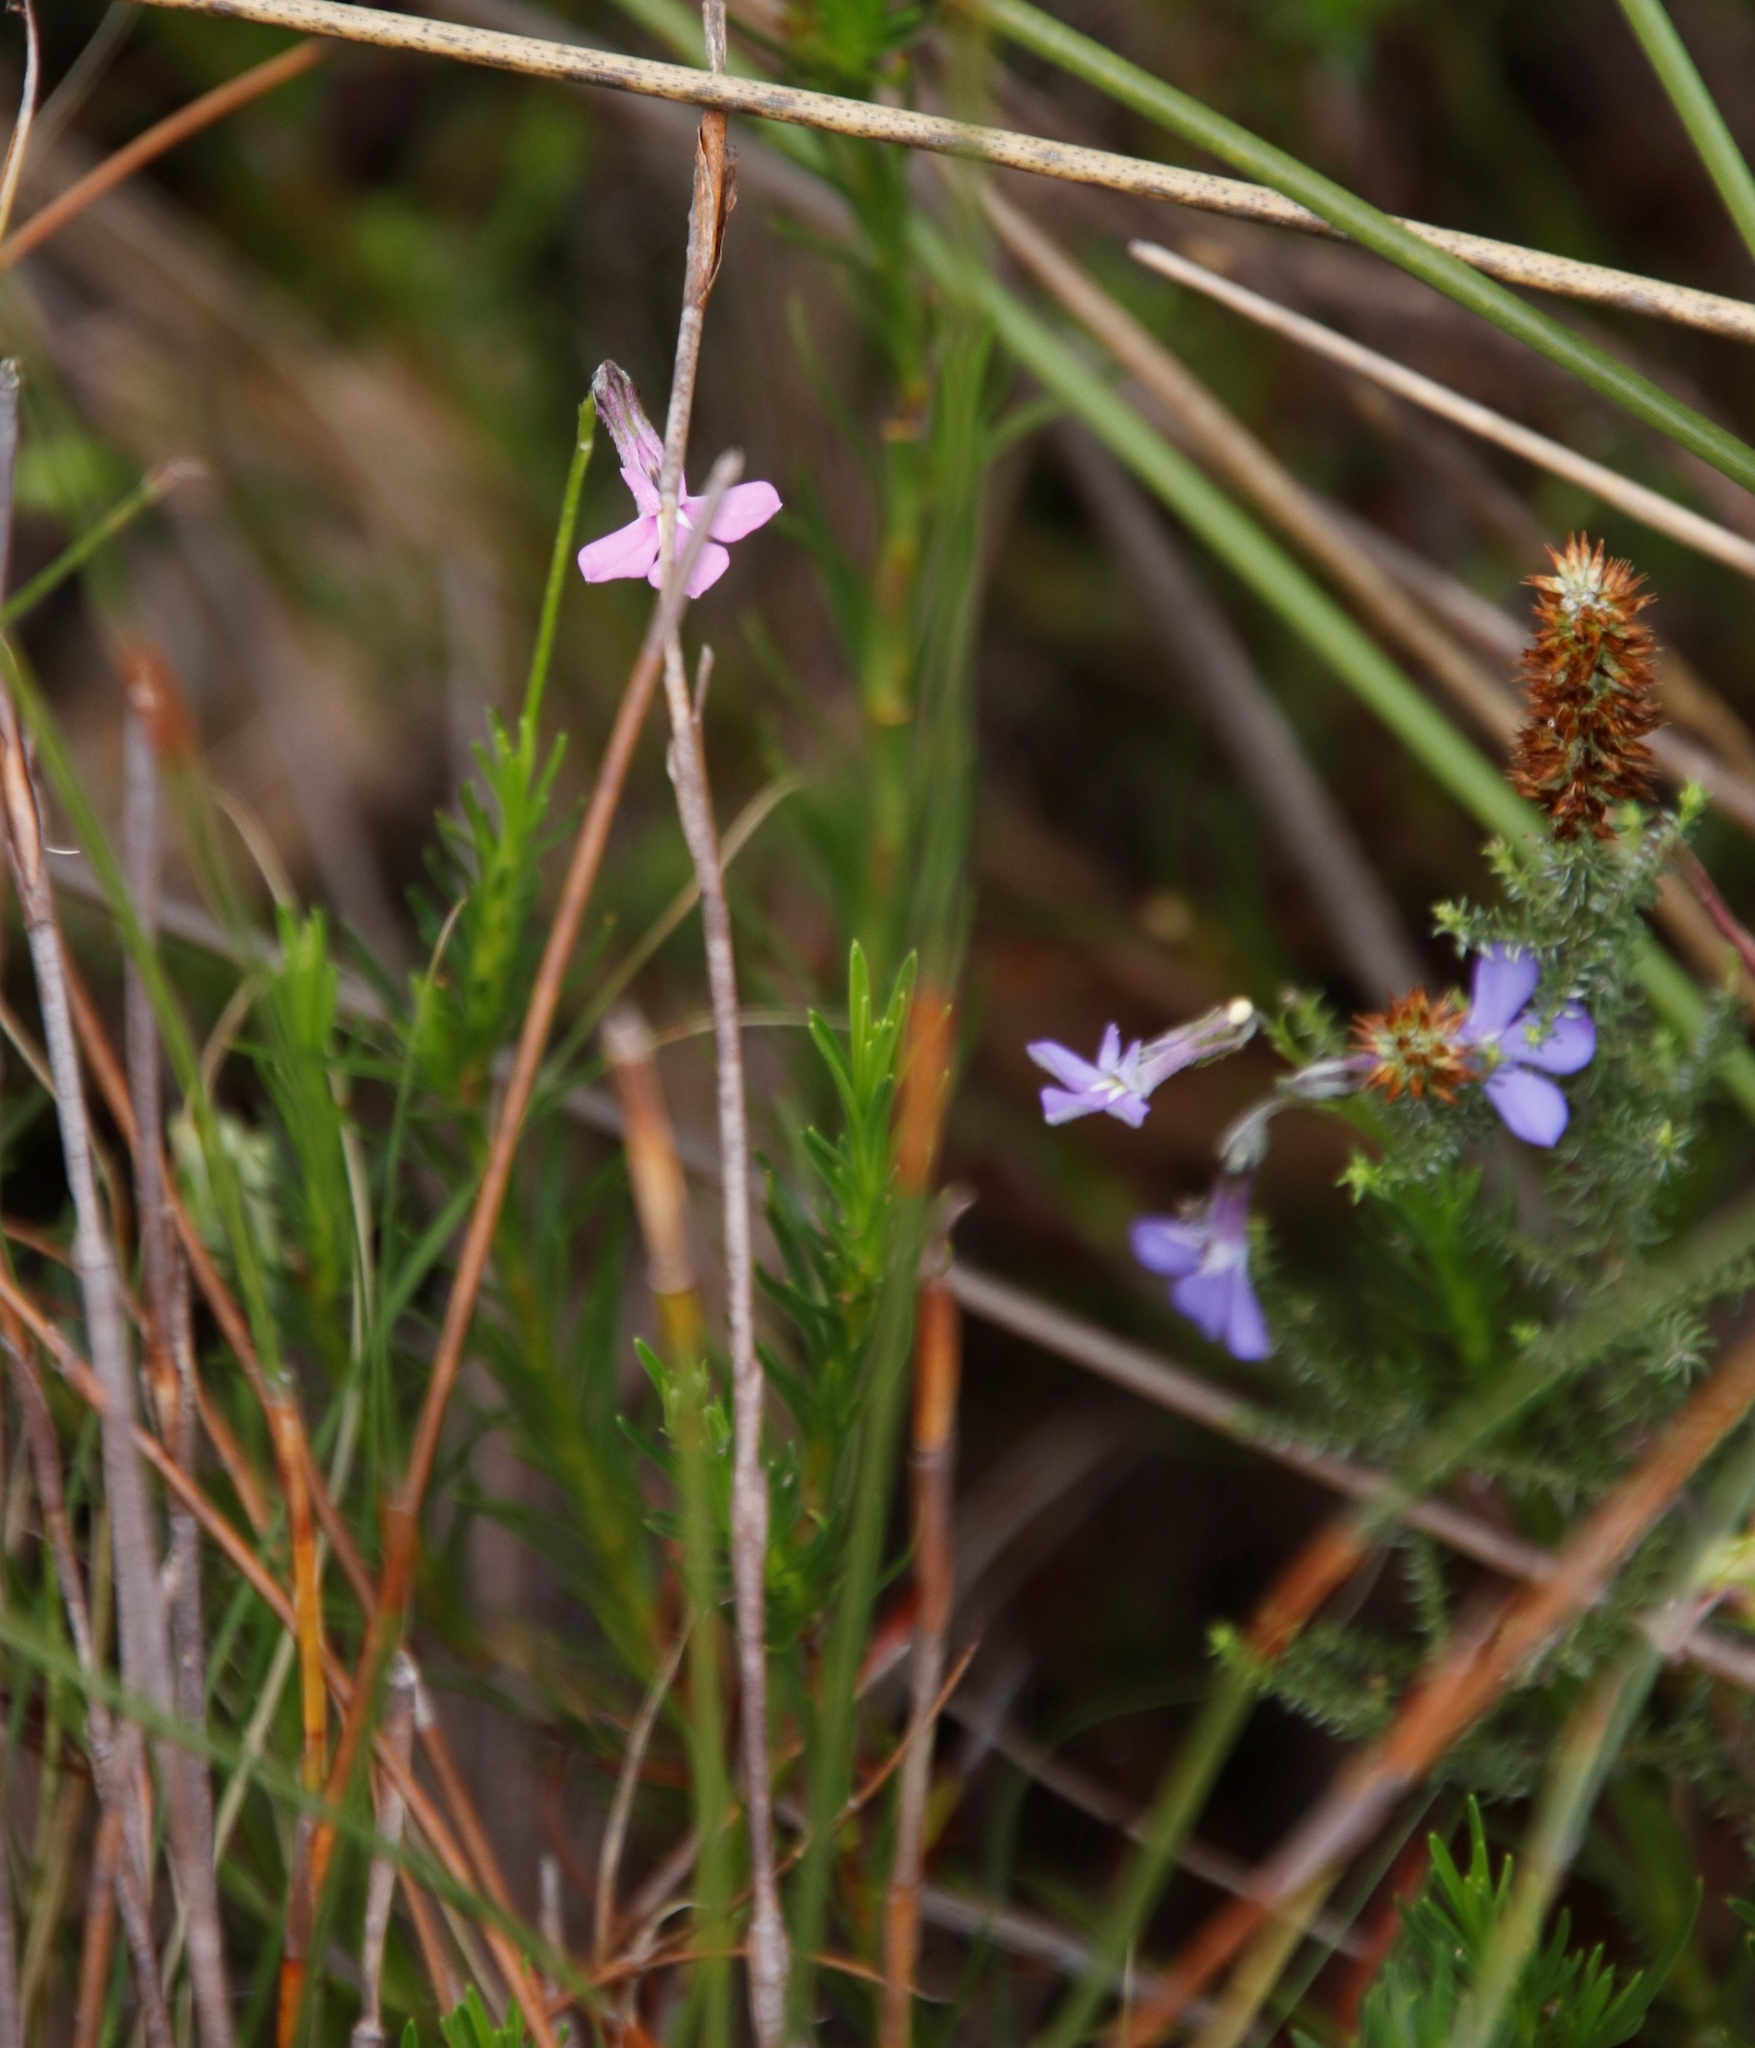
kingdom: Plantae
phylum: Tracheophyta
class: Magnoliopsida
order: Asterales
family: Campanulaceae
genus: Lobelia
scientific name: Lobelia pinifolia
